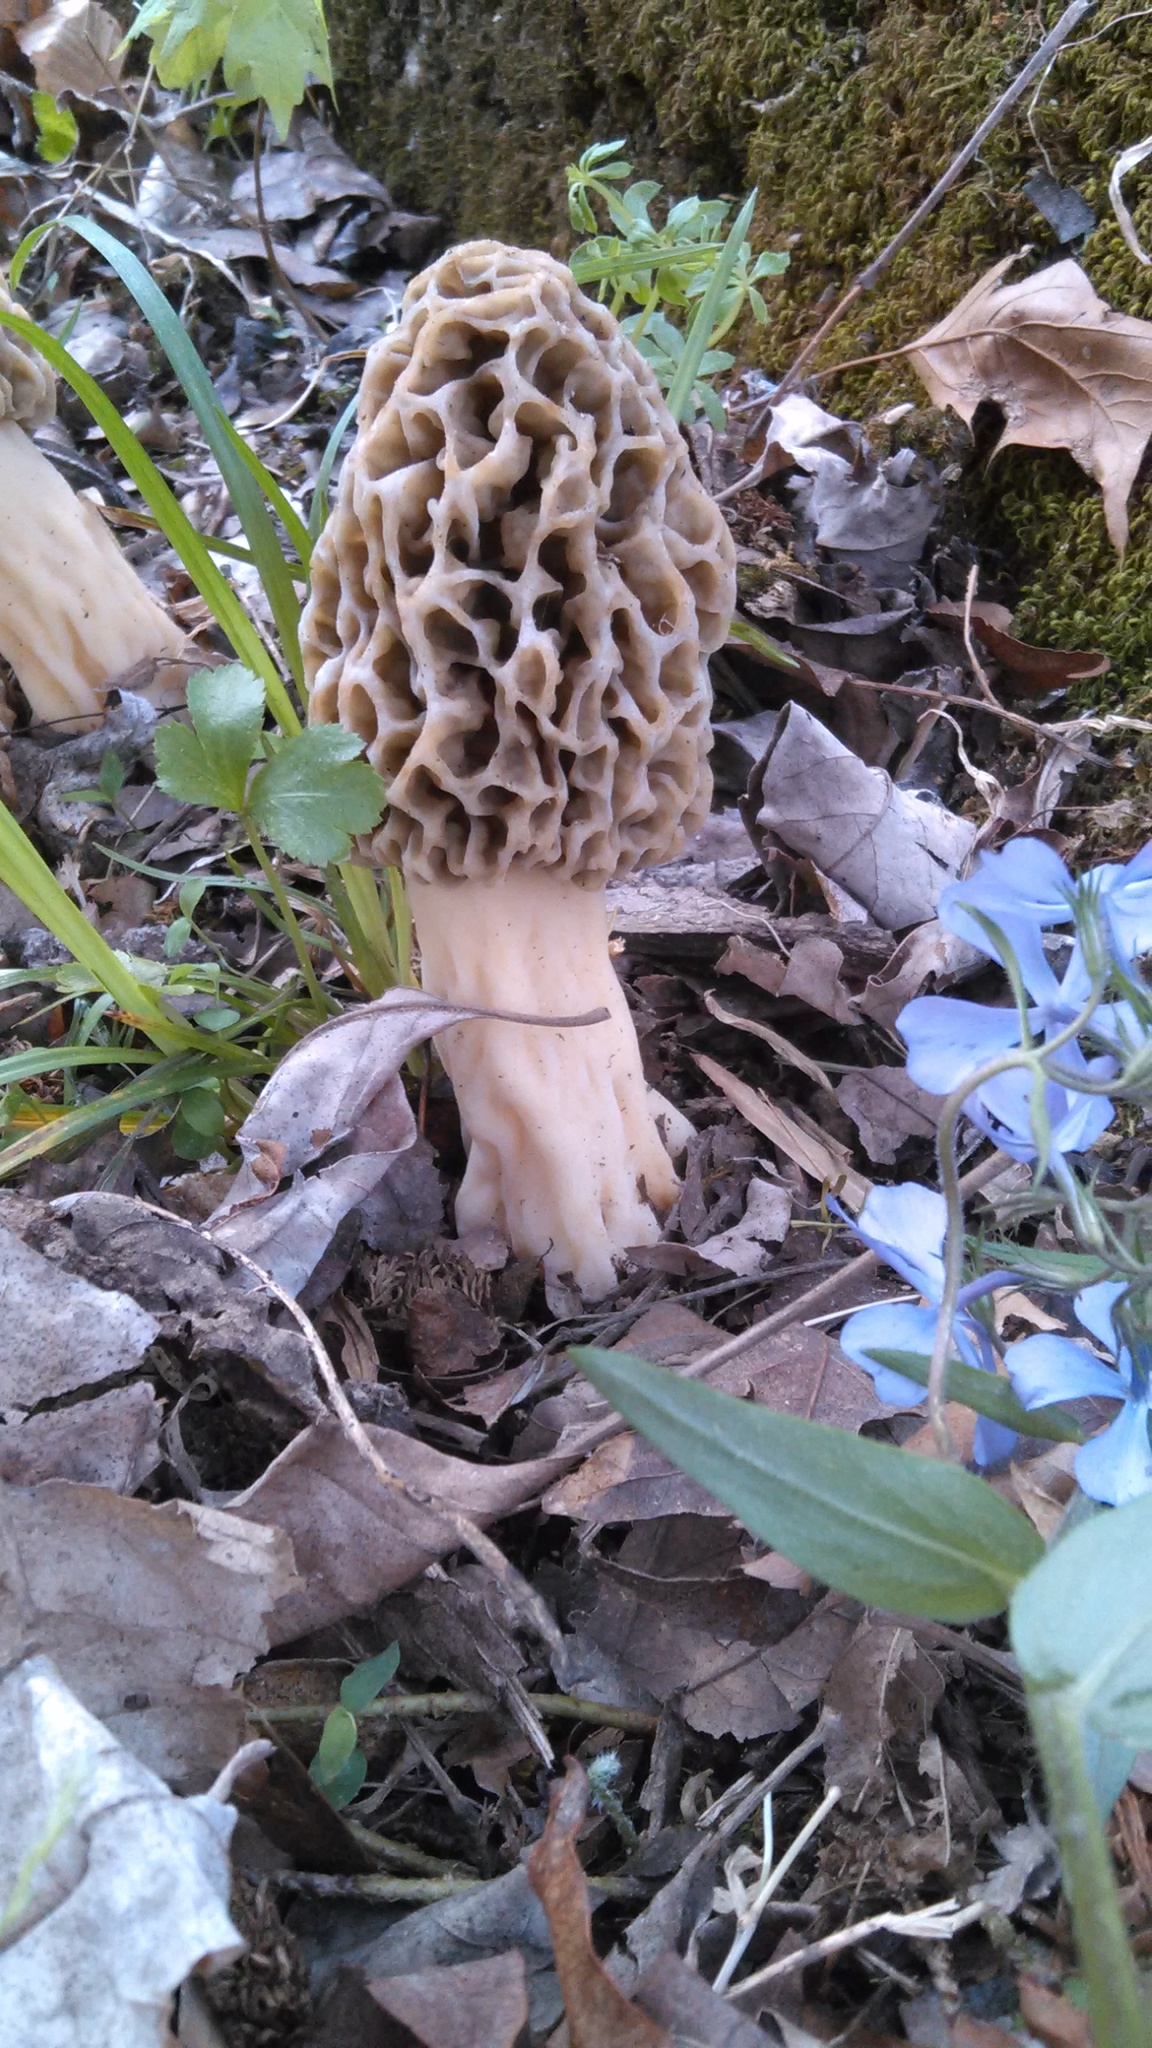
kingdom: Fungi
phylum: Ascomycota
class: Pezizomycetes
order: Pezizales
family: Morchellaceae
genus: Morchella
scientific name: Morchella americana
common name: White morel
